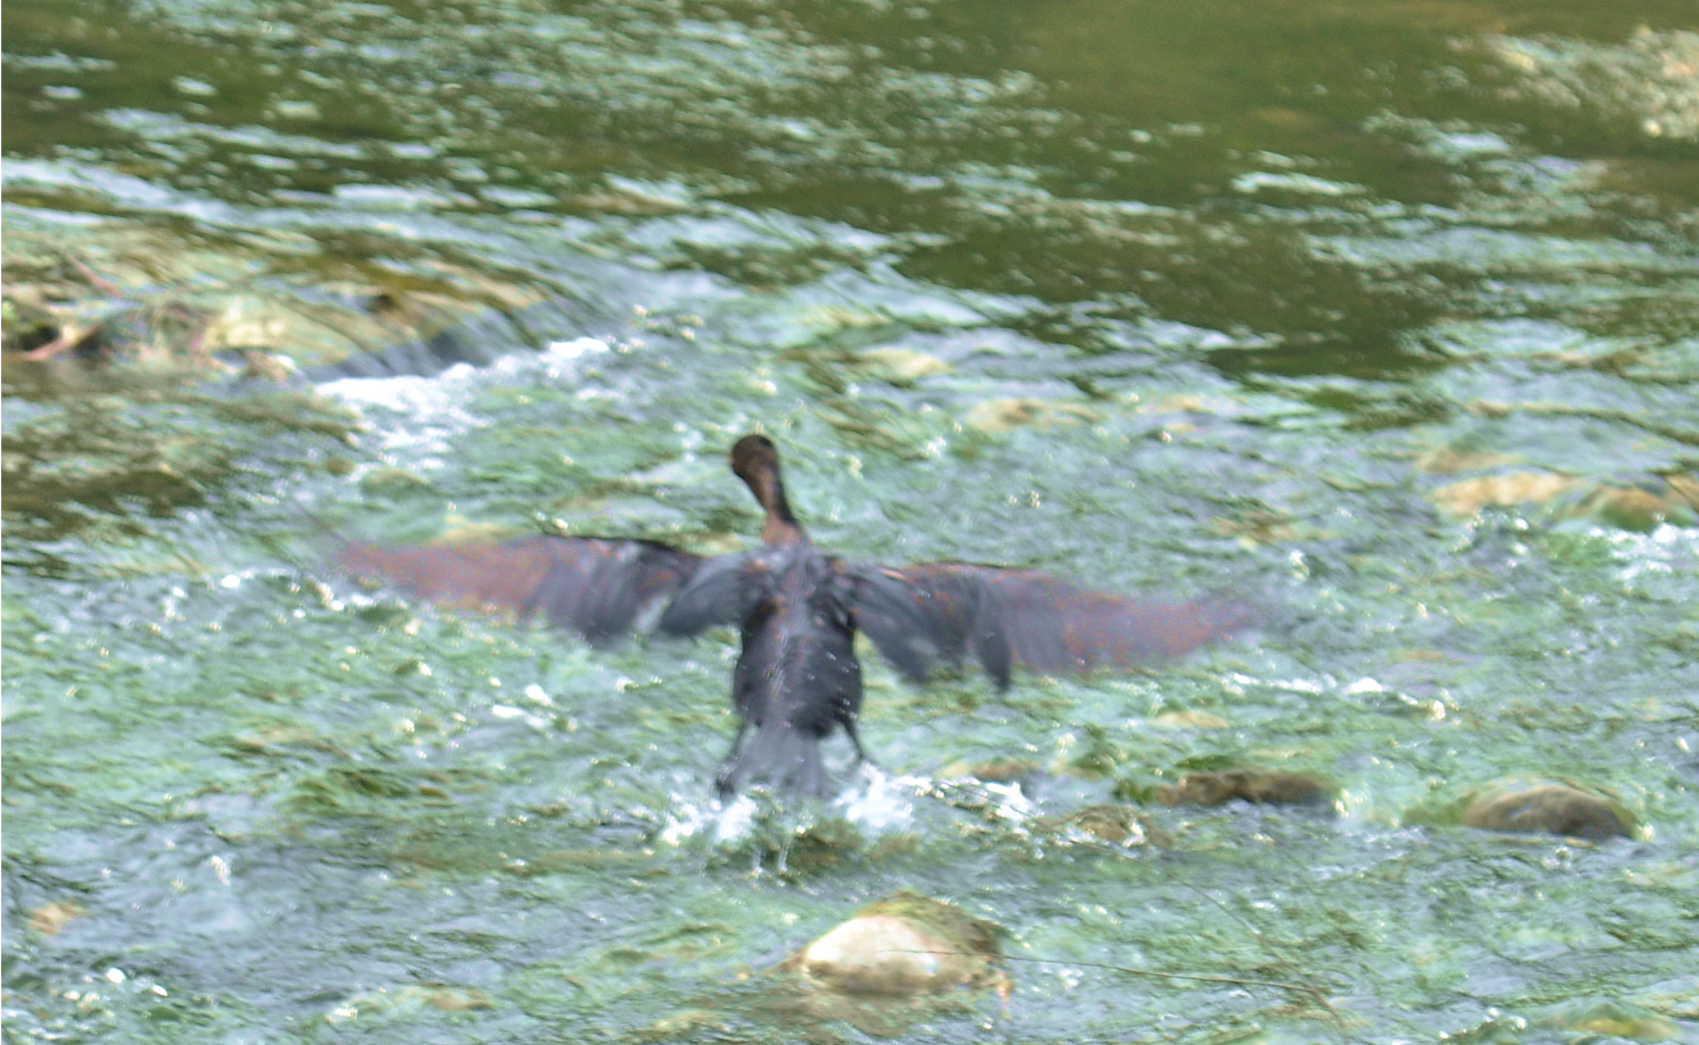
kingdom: Animalia
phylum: Chordata
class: Aves
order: Suliformes
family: Phalacrocoracidae
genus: Phalacrocorax
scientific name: Phalacrocorax brasilianus
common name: Neotropic cormorant
